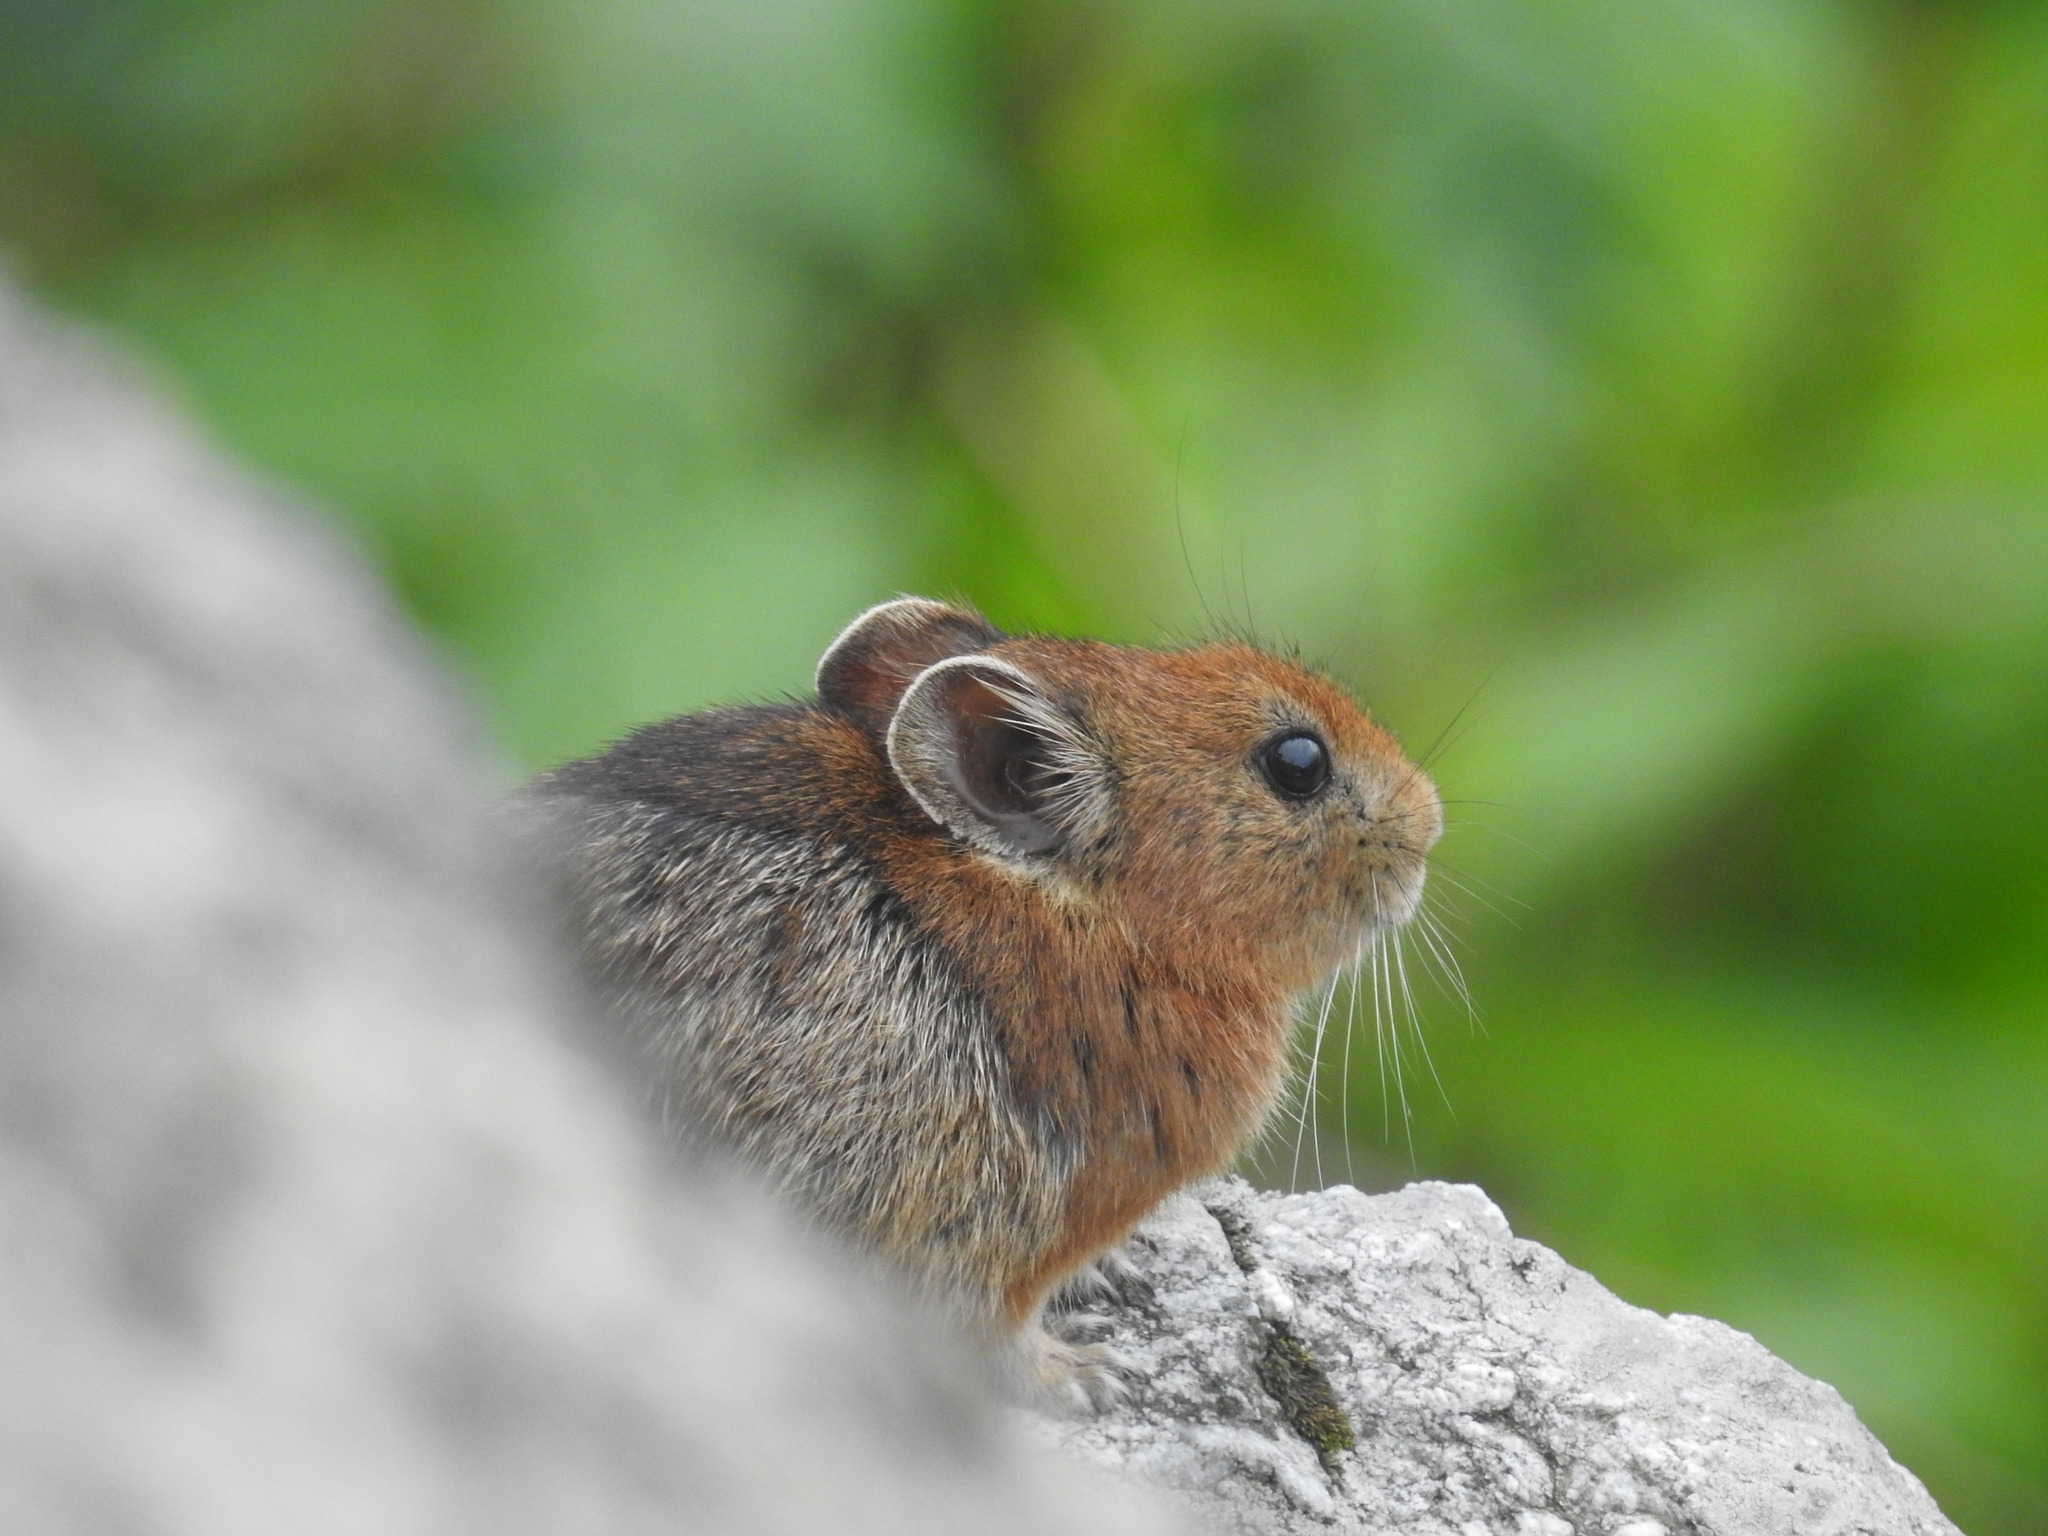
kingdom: Animalia
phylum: Chordata
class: Mammalia
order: Lagomorpha
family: Ochotonidae
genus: Ochotona
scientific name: Ochotona roylii
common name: Royle s pika
